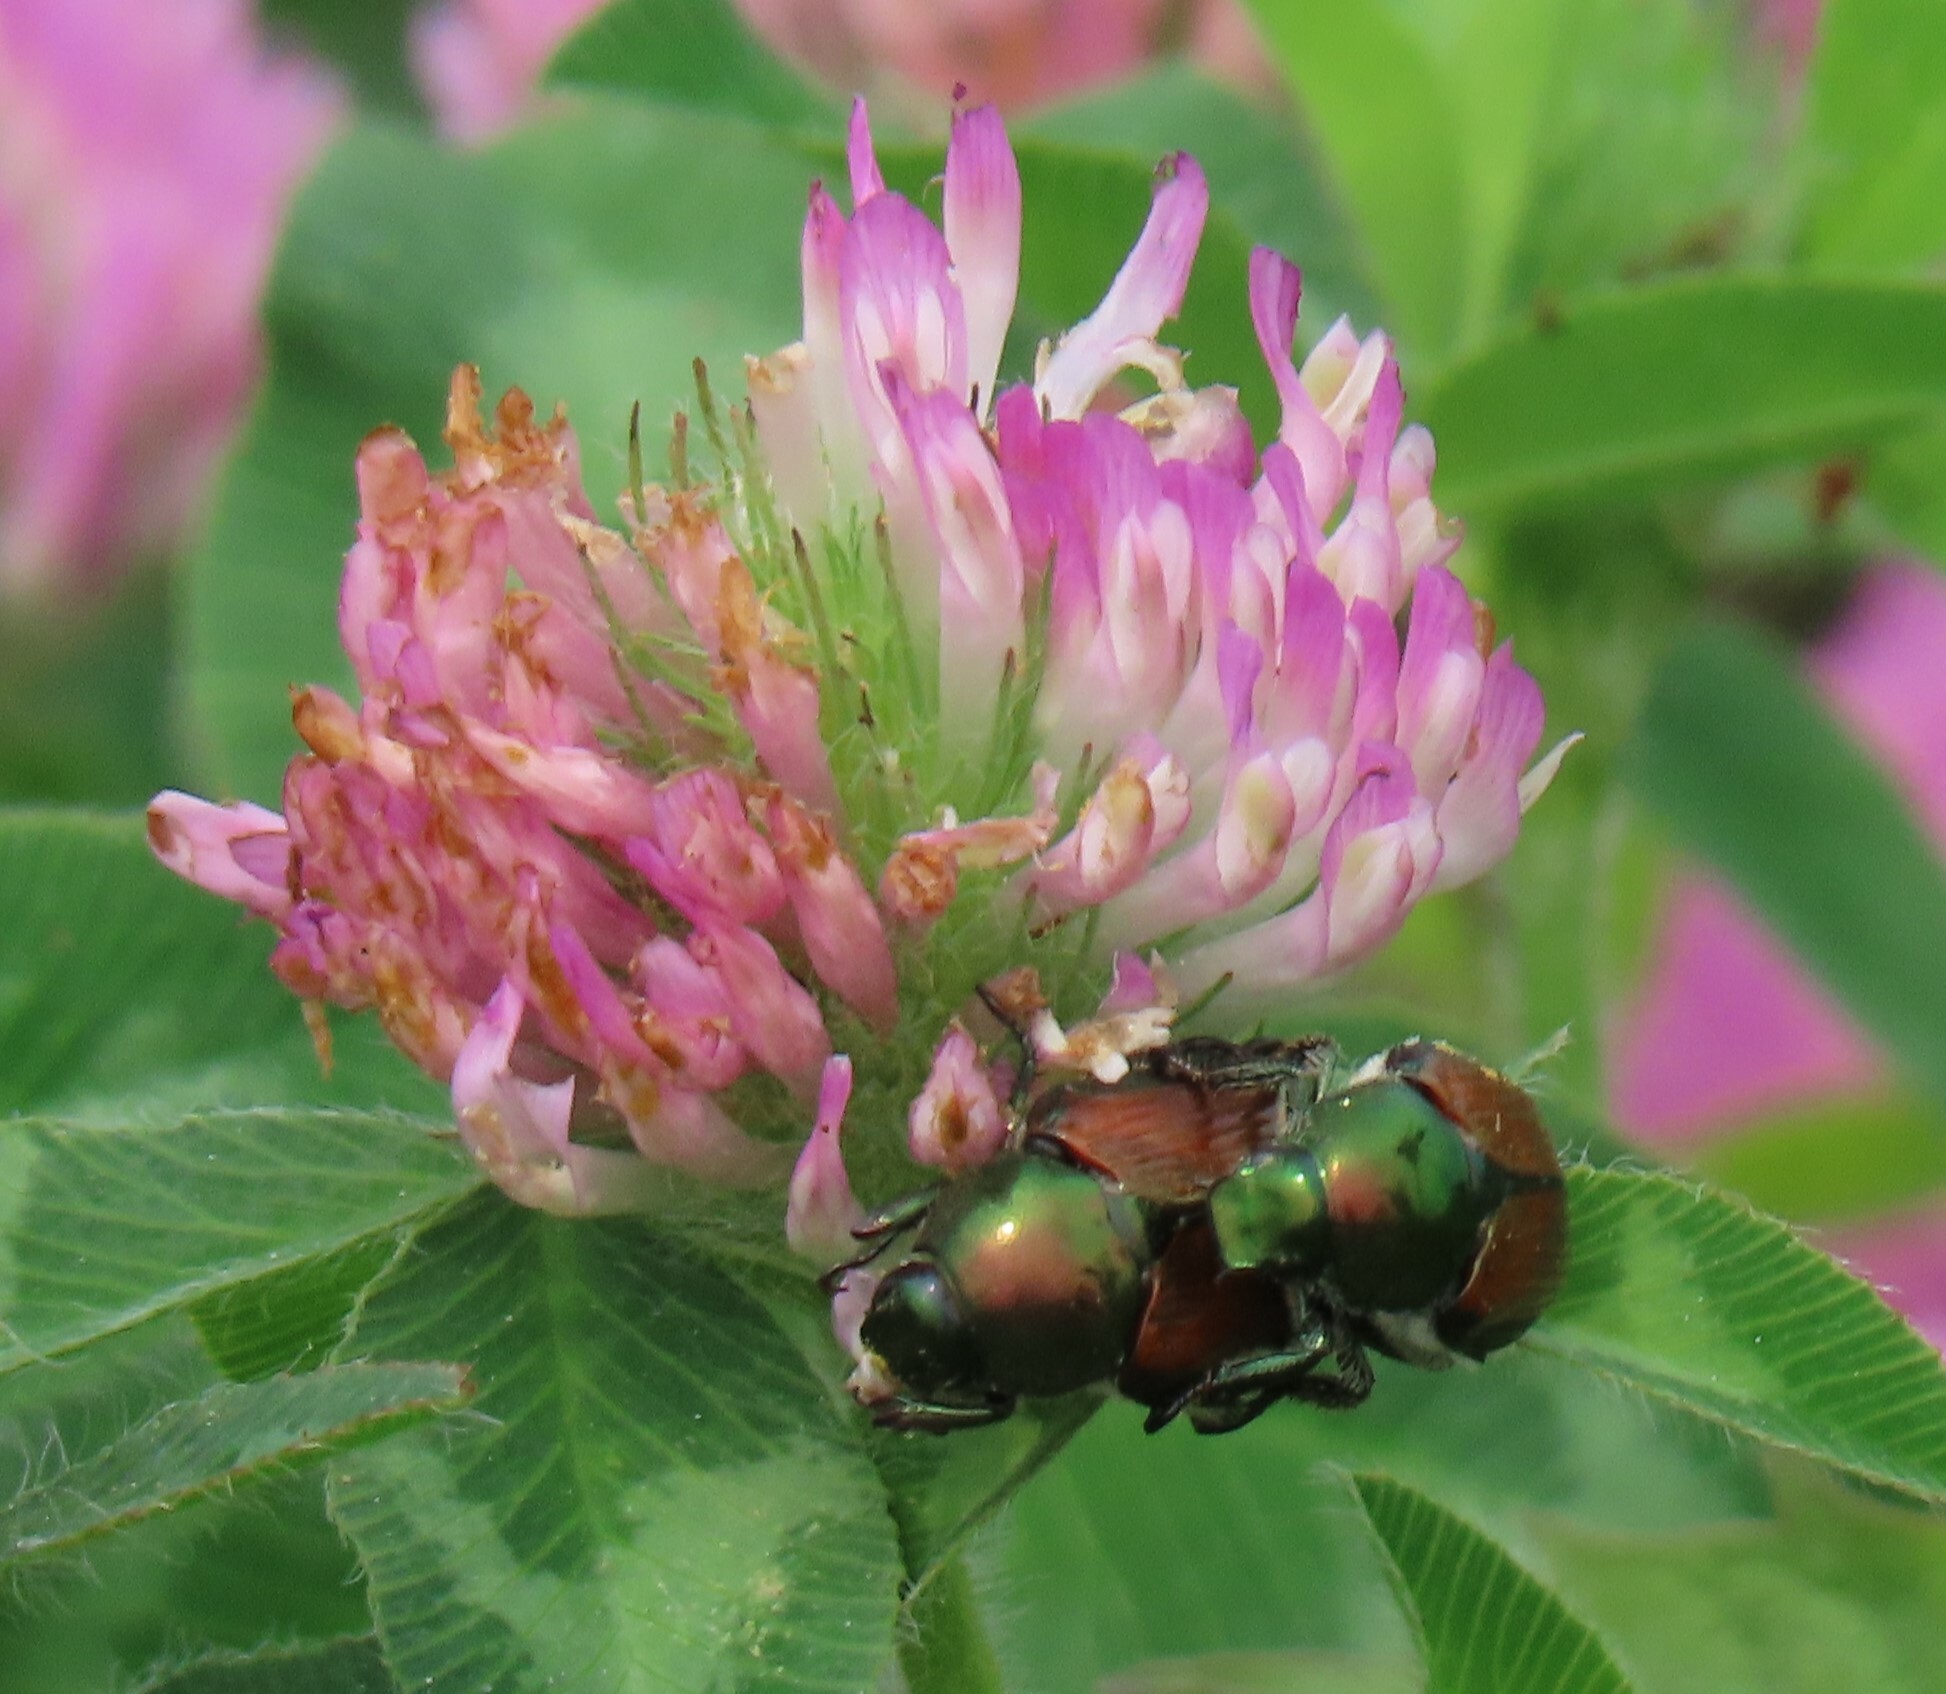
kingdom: Animalia
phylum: Arthropoda
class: Insecta
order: Coleoptera
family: Scarabaeidae
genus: Popillia
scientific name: Popillia japonica
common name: Japanese beetle
